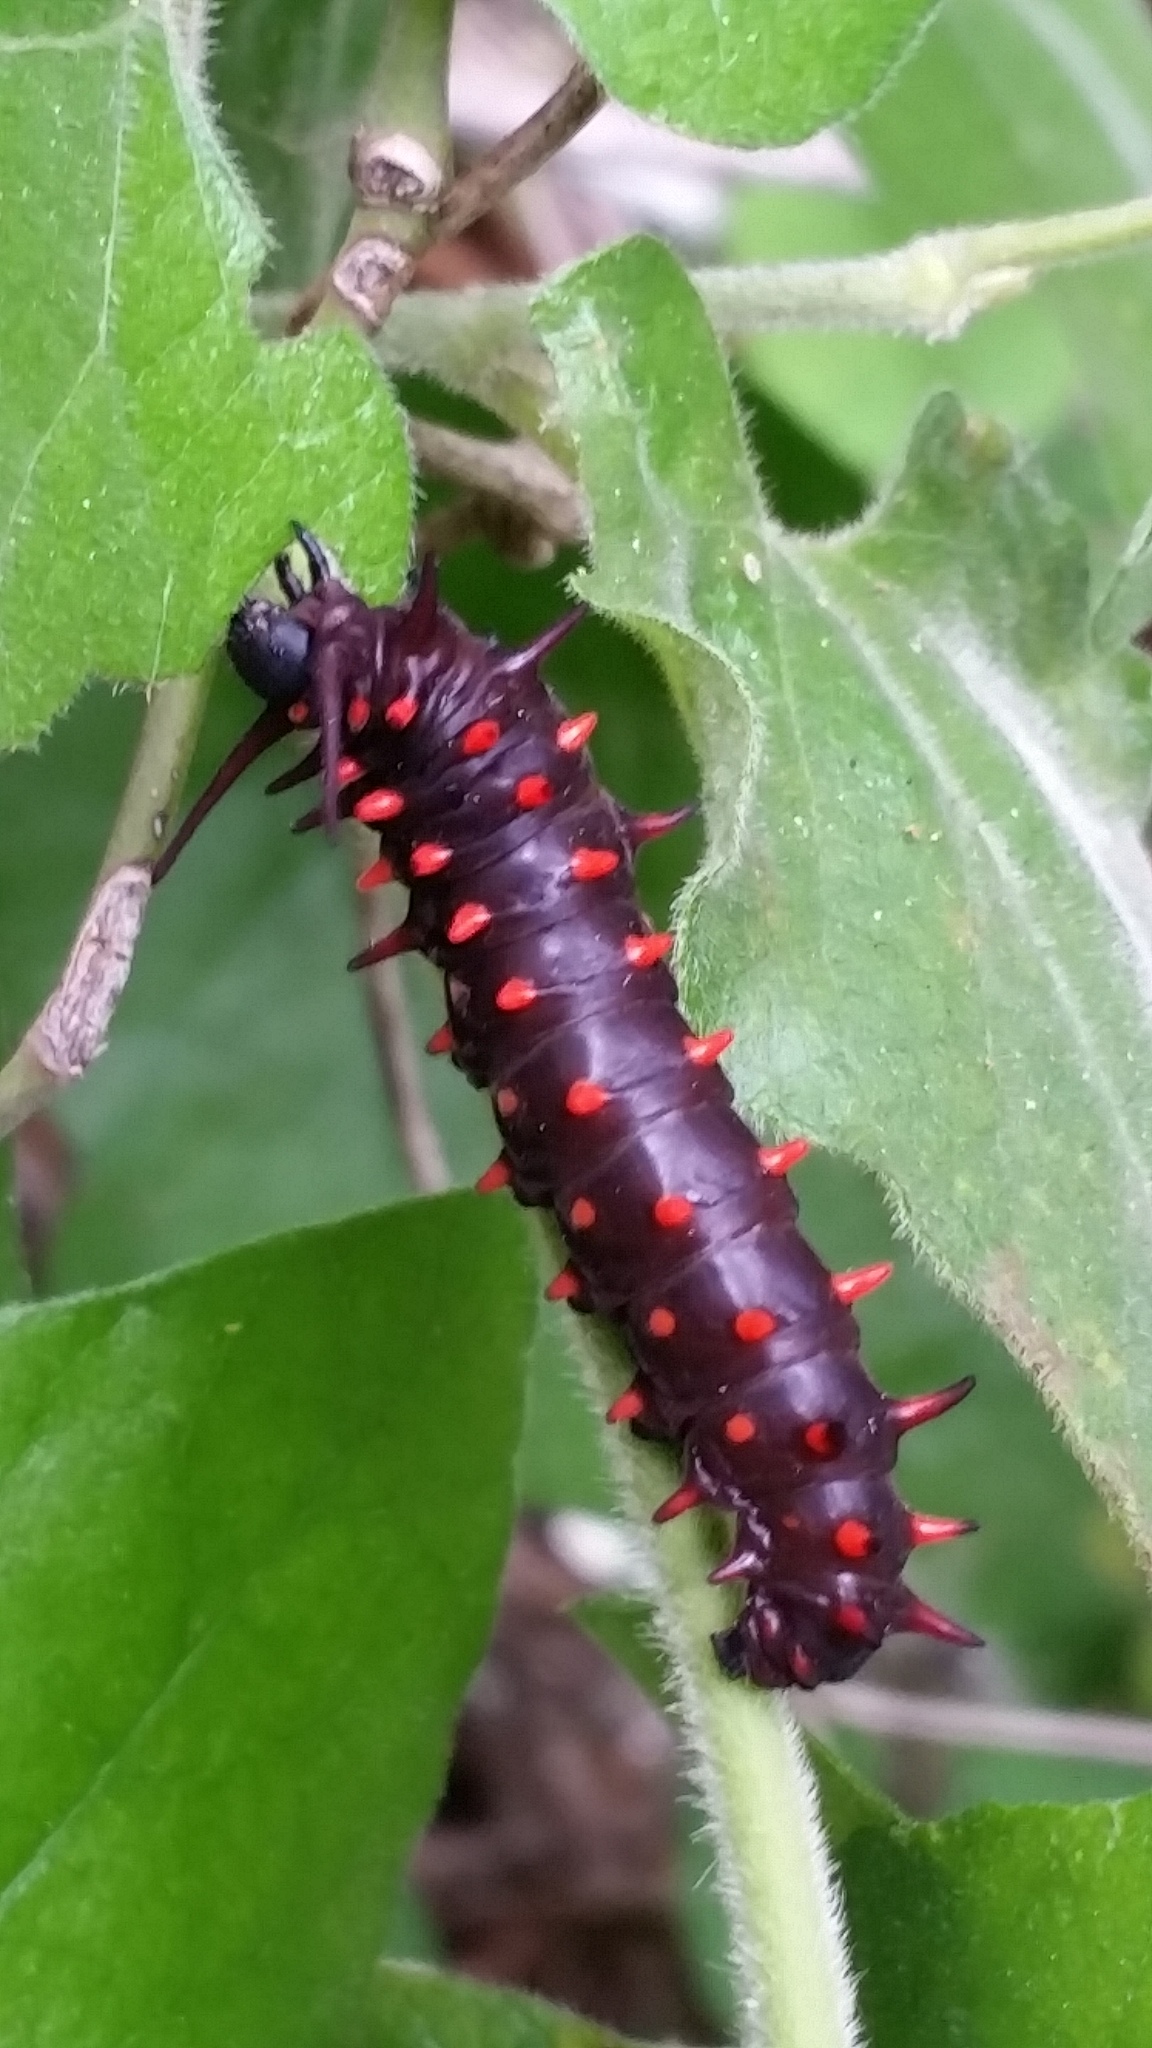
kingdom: Animalia
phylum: Arthropoda
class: Insecta
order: Lepidoptera
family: Papilionidae
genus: Battus
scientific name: Battus philenor
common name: Pipevine swallowtail
